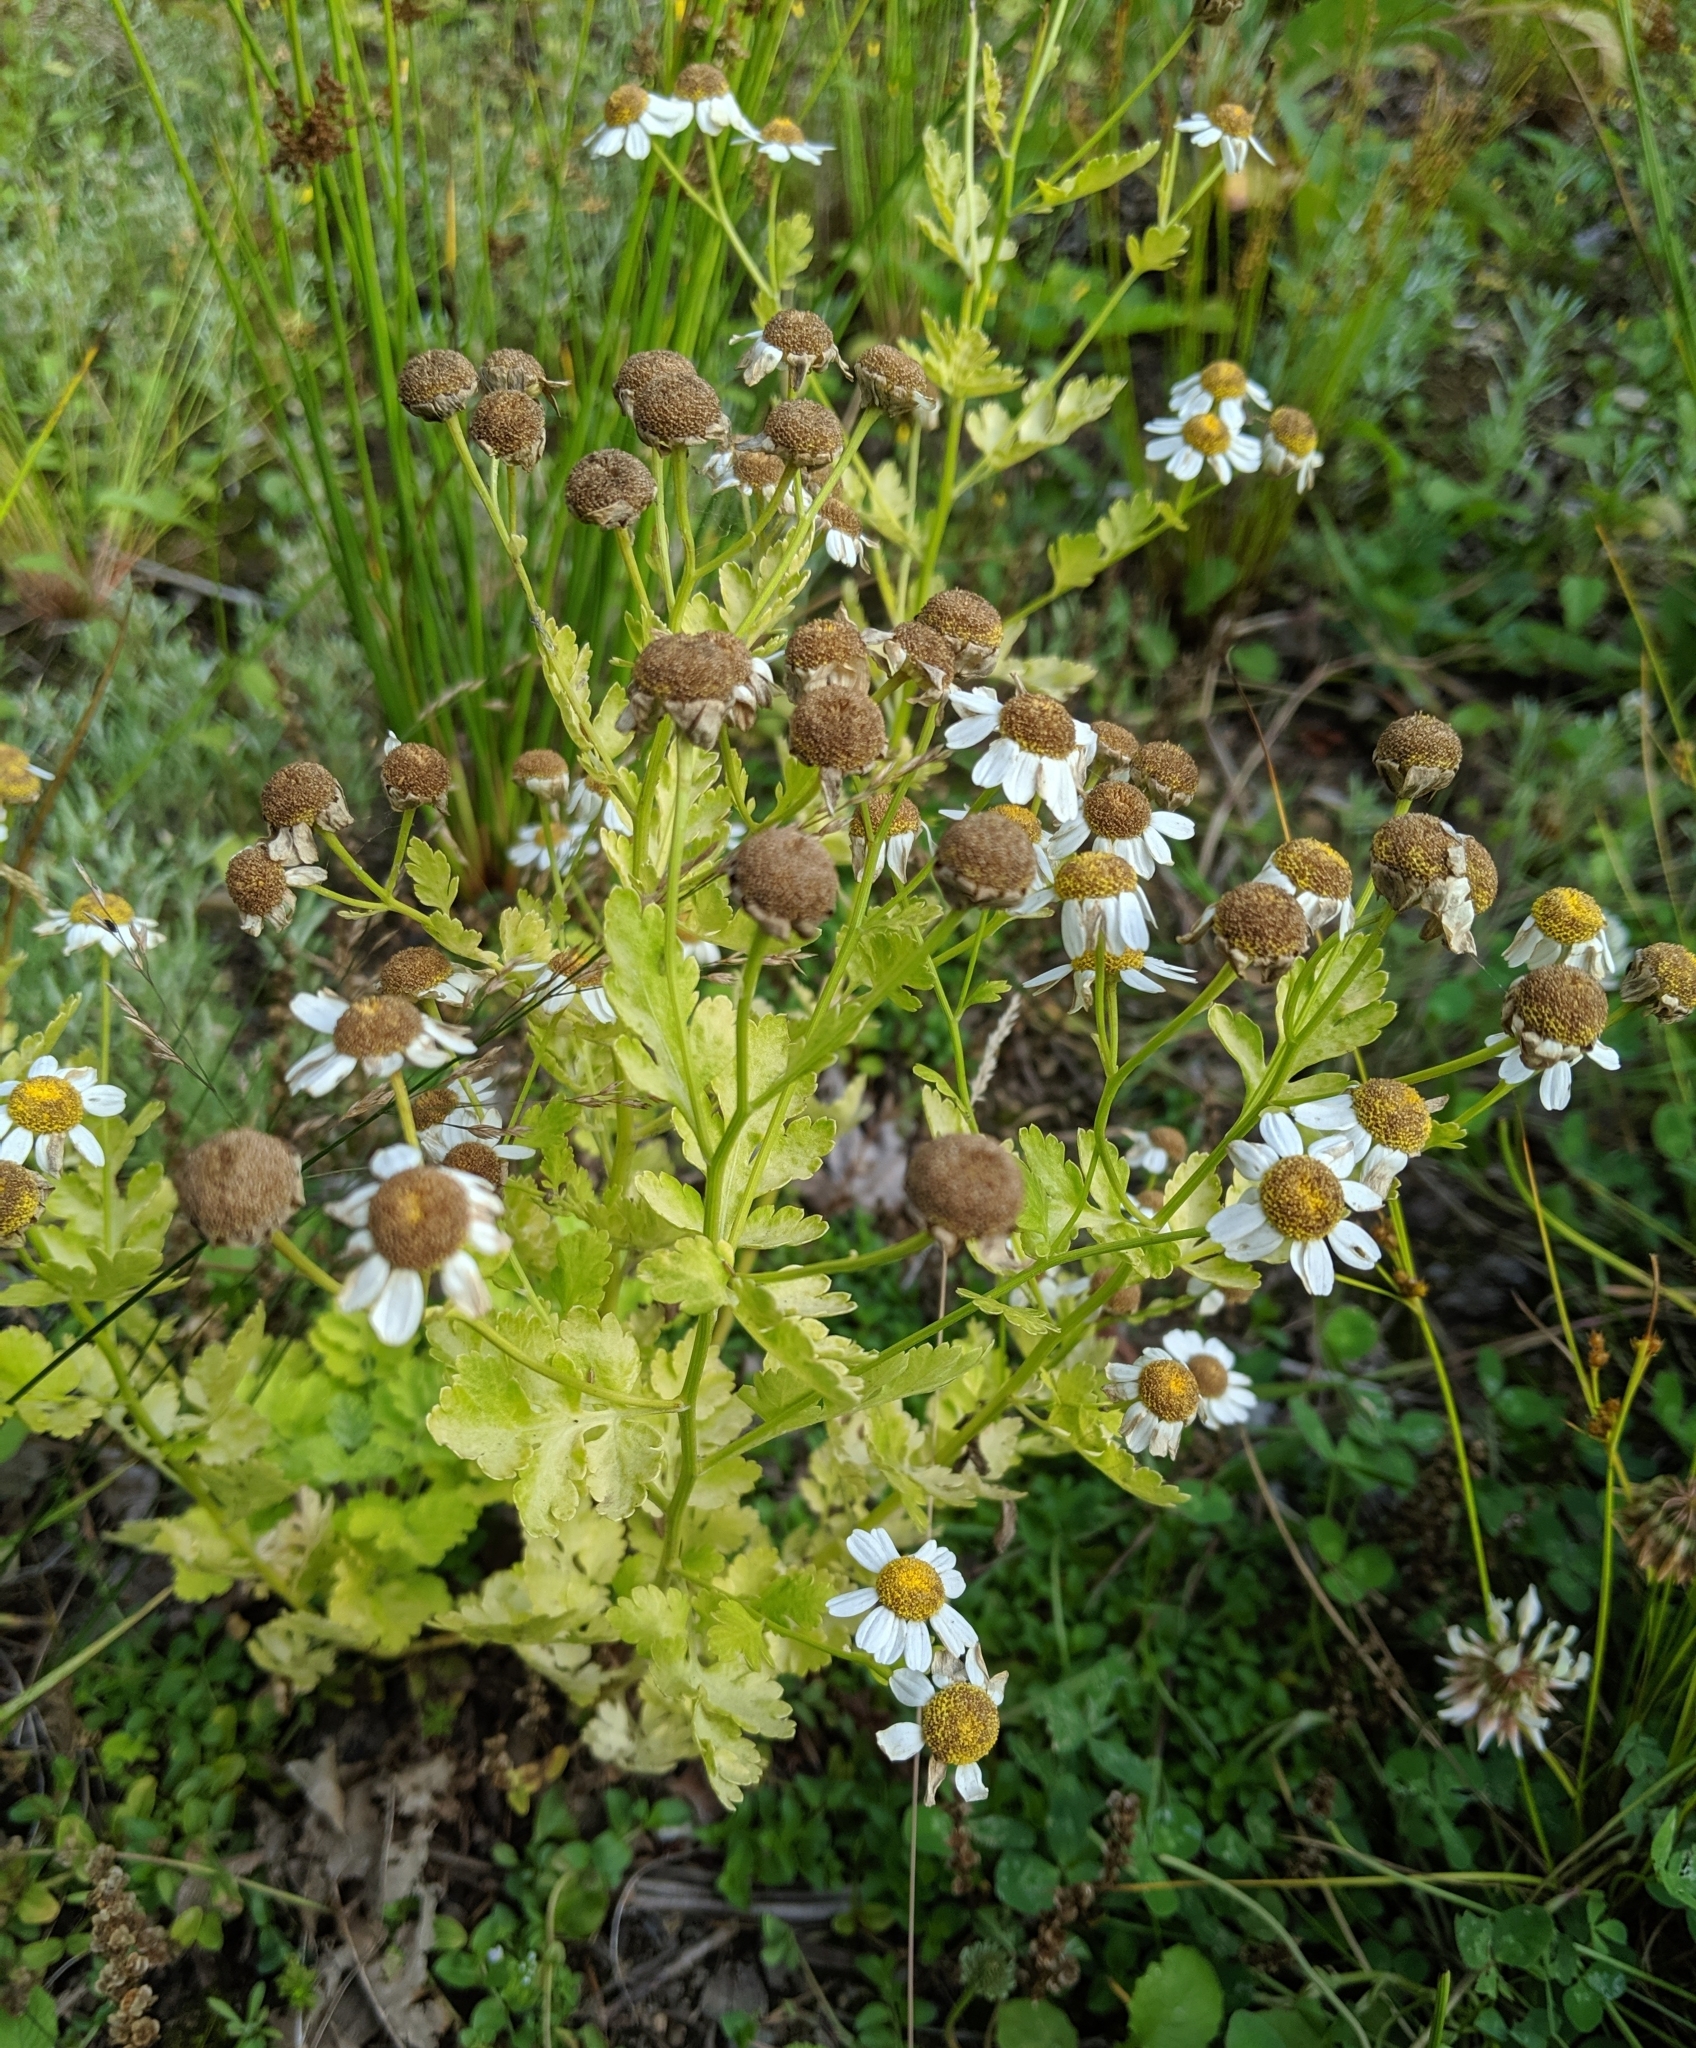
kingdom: Plantae
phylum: Tracheophyta
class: Magnoliopsida
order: Asterales
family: Asteraceae
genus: Tanacetum
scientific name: Tanacetum parthenium
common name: Feverfew
